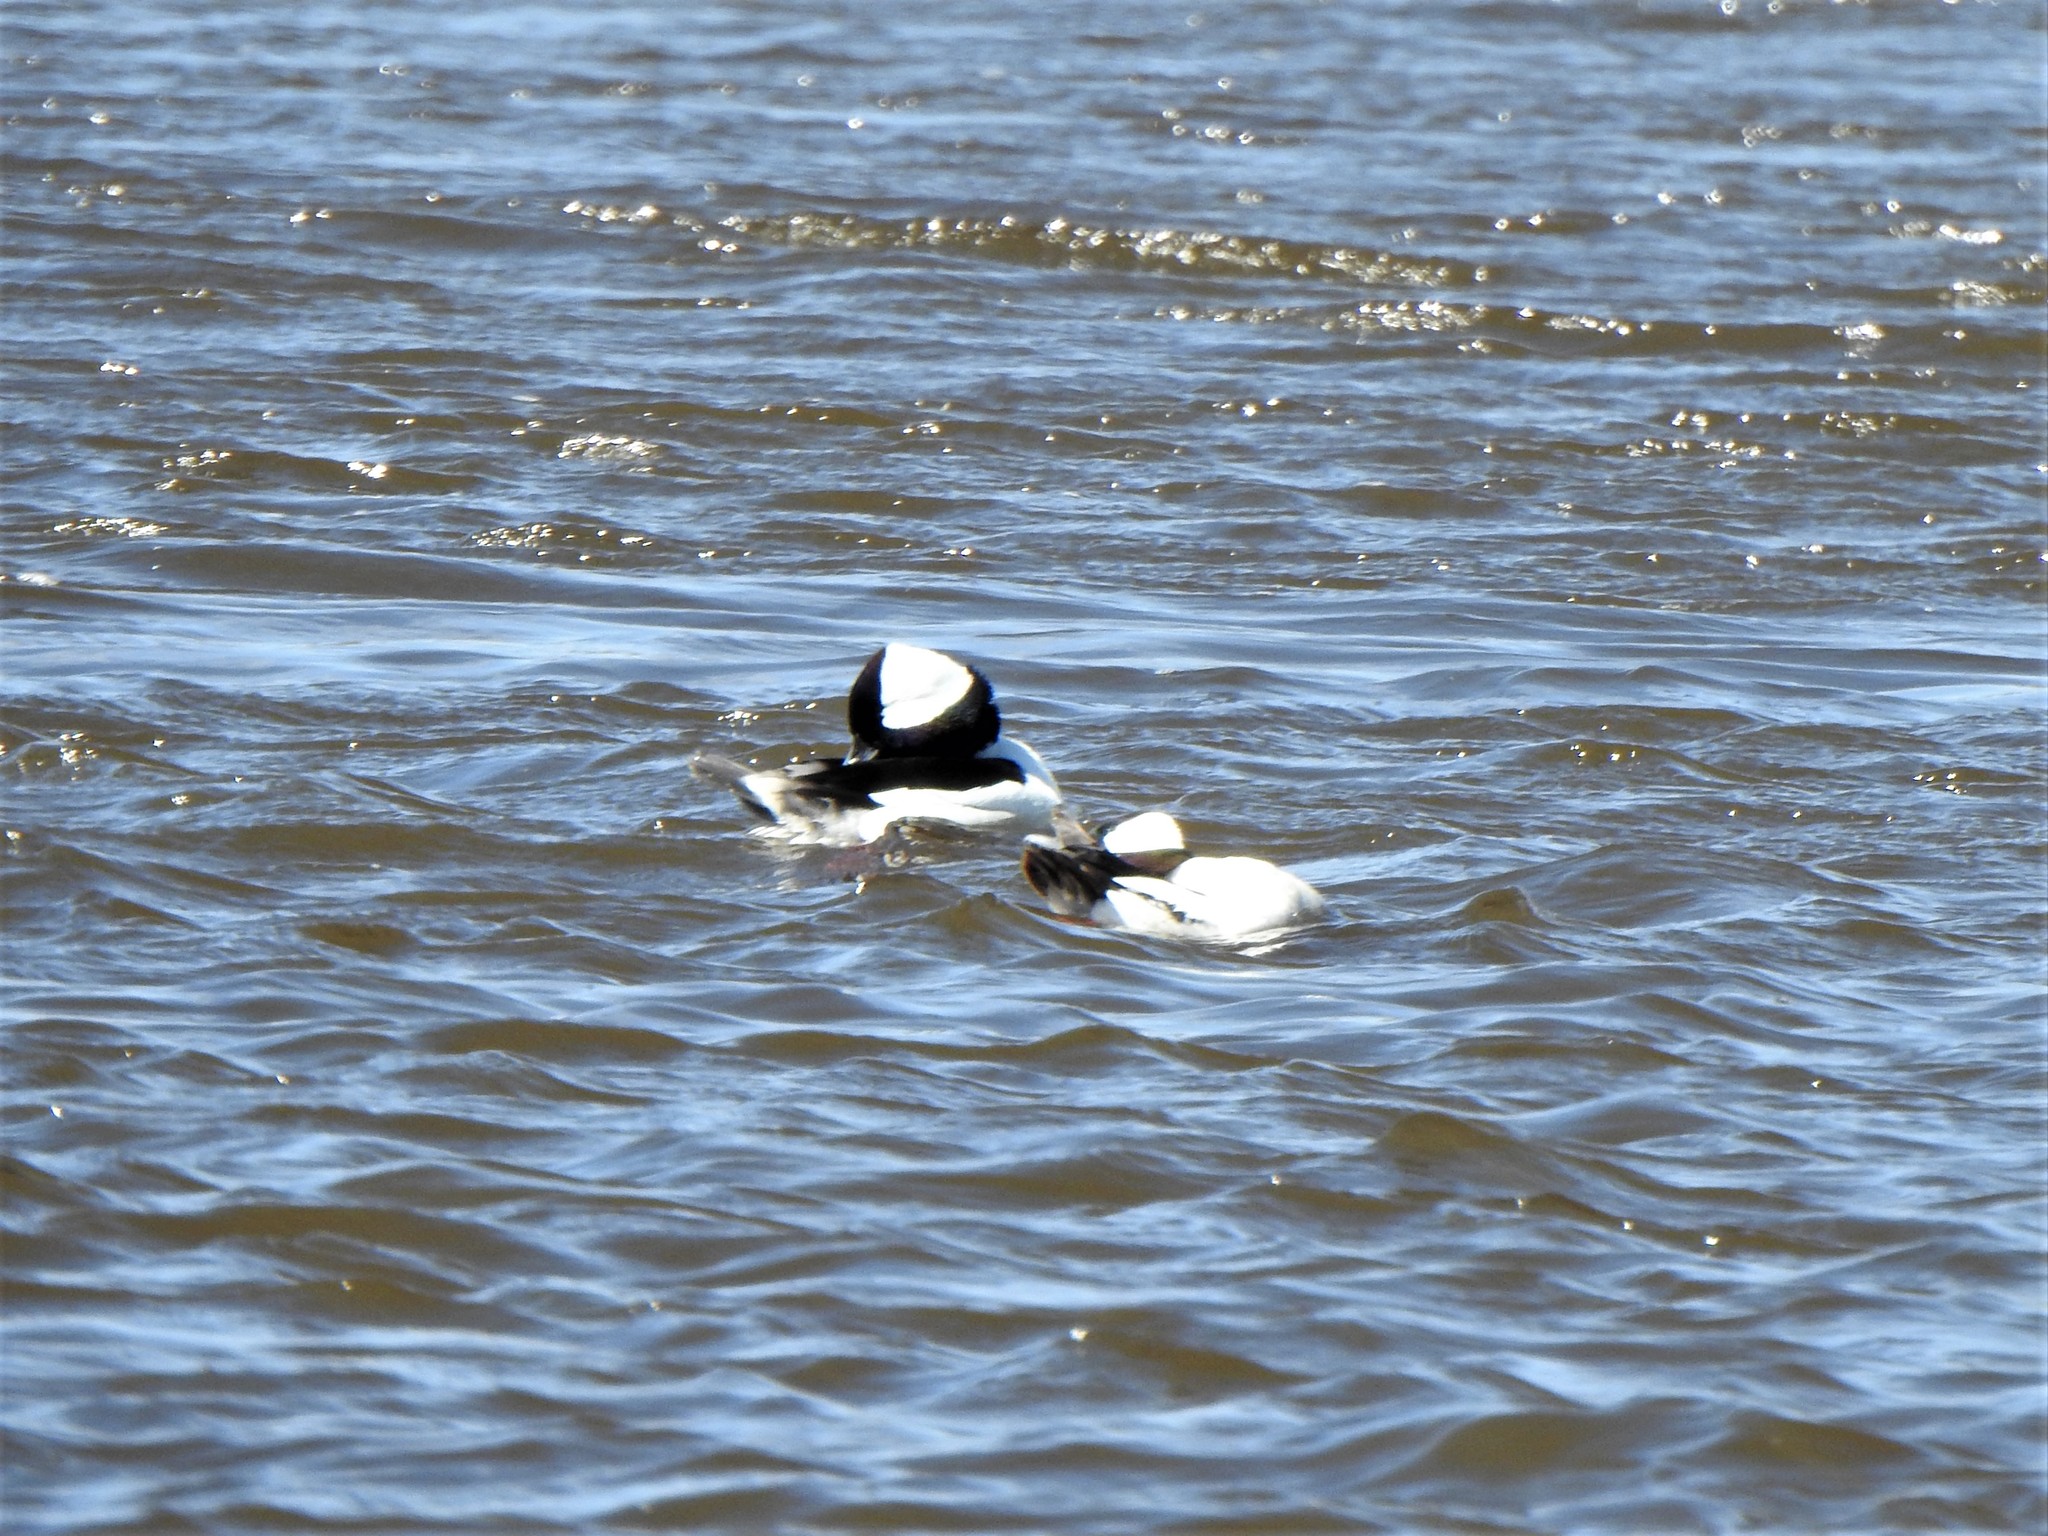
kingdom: Animalia
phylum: Chordata
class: Aves
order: Anseriformes
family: Anatidae
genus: Bucephala
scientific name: Bucephala albeola
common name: Bufflehead
